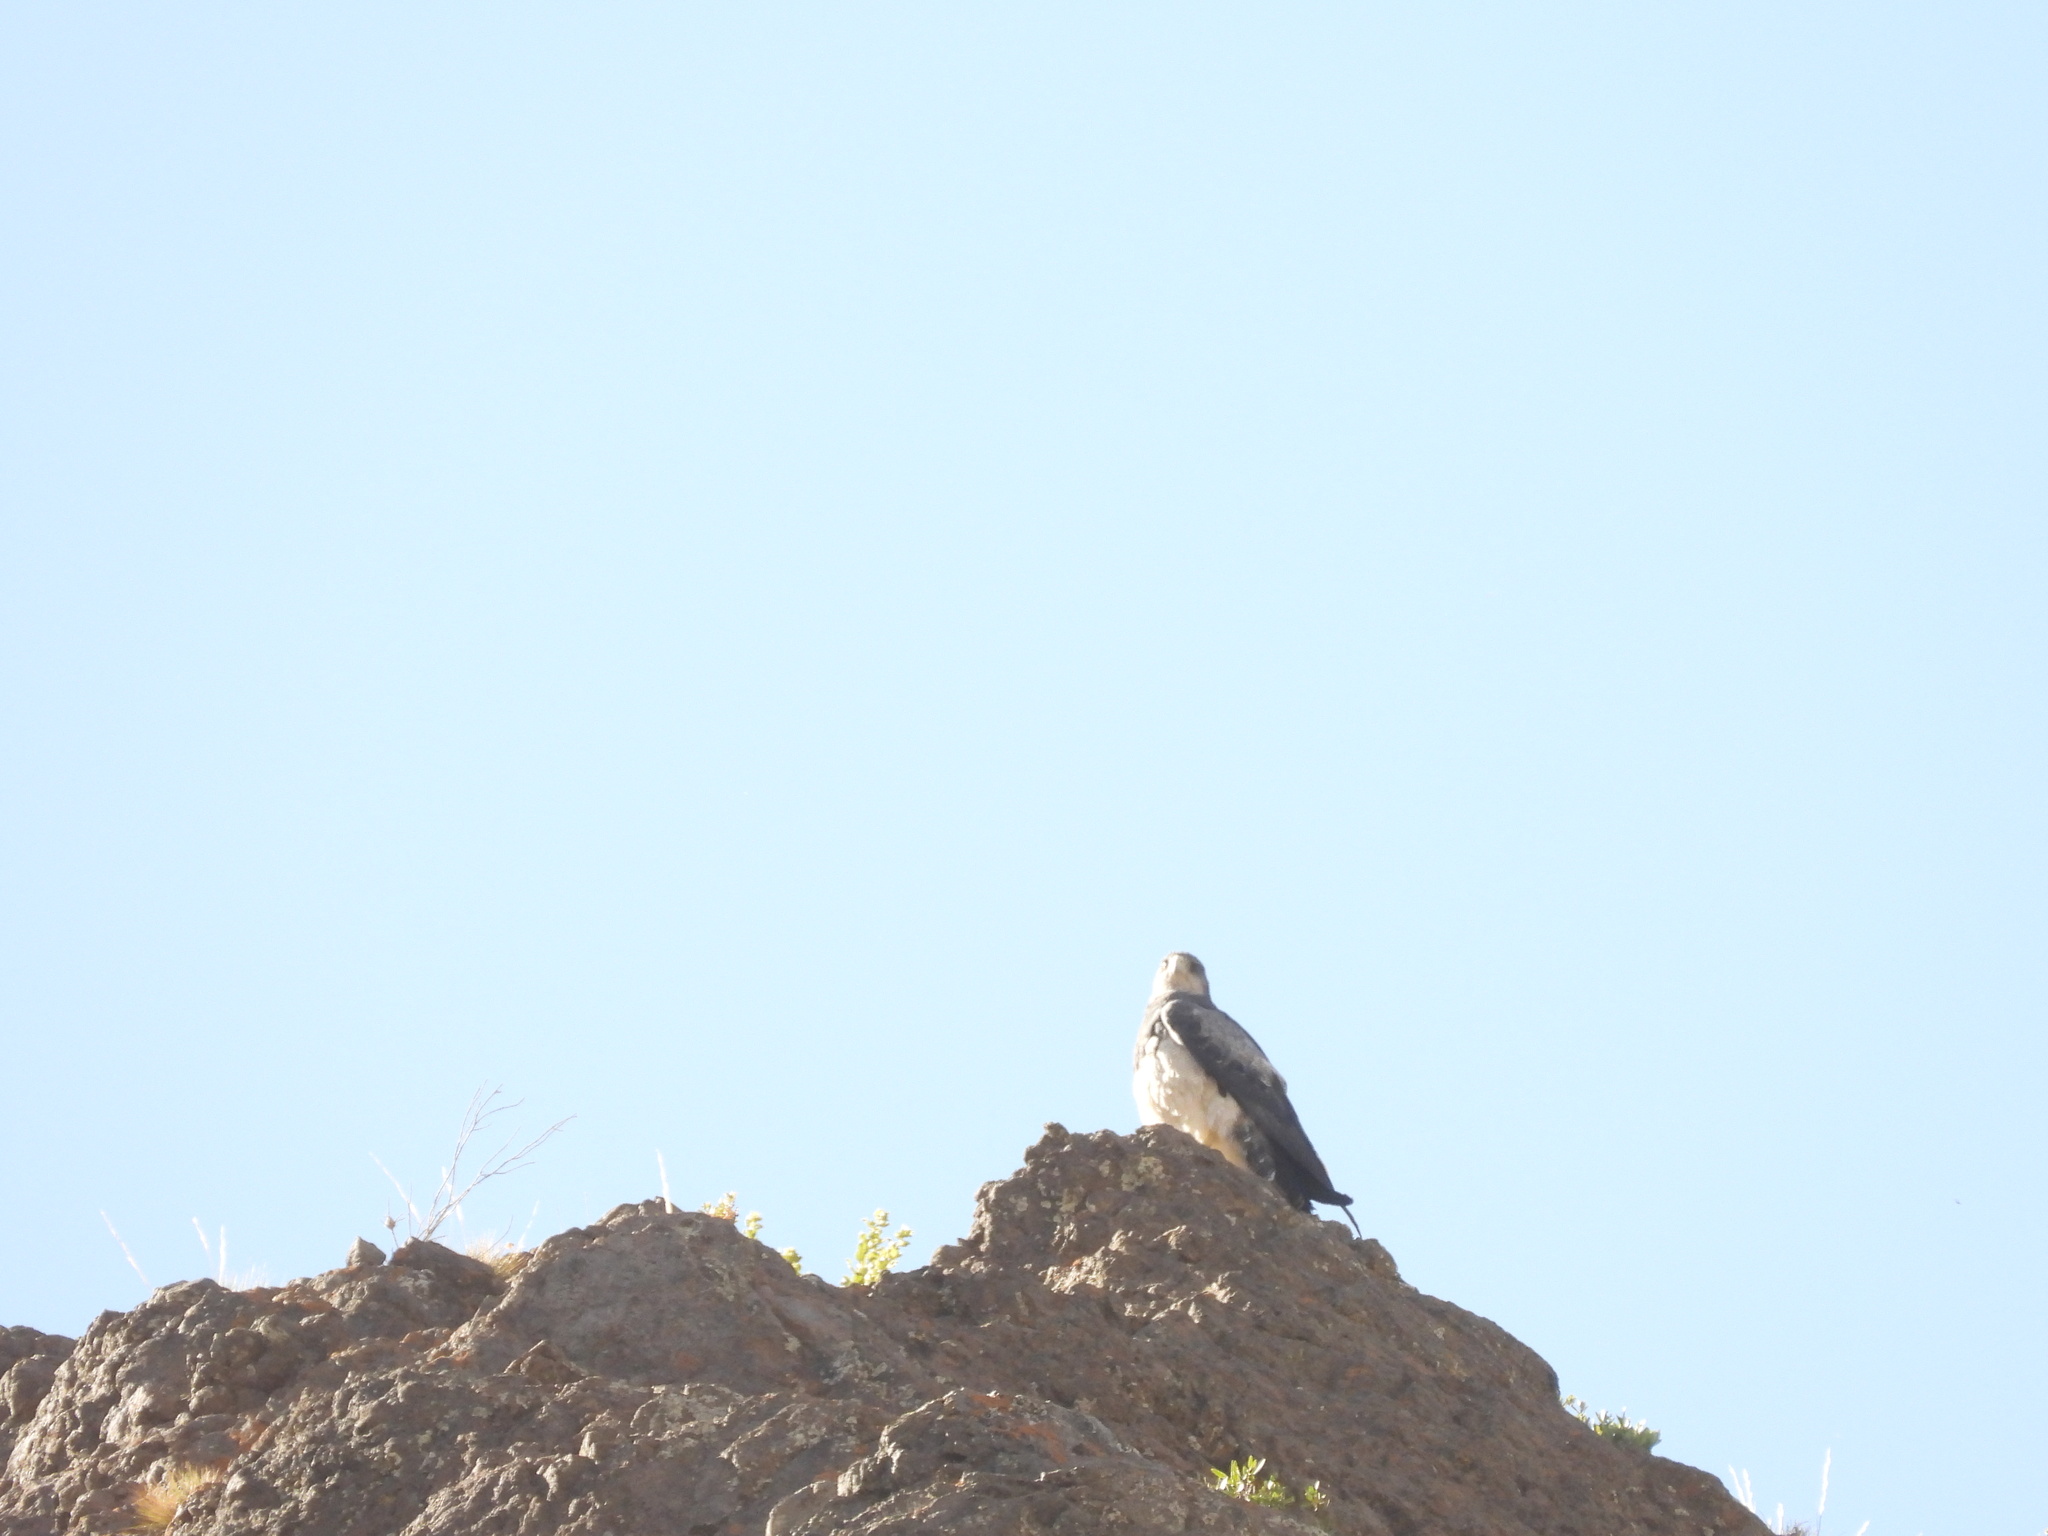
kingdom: Animalia
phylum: Chordata
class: Aves
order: Accipitriformes
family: Accipitridae
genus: Geranoaetus
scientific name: Geranoaetus melanoleucus
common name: Black-chested buzzard-eagle
